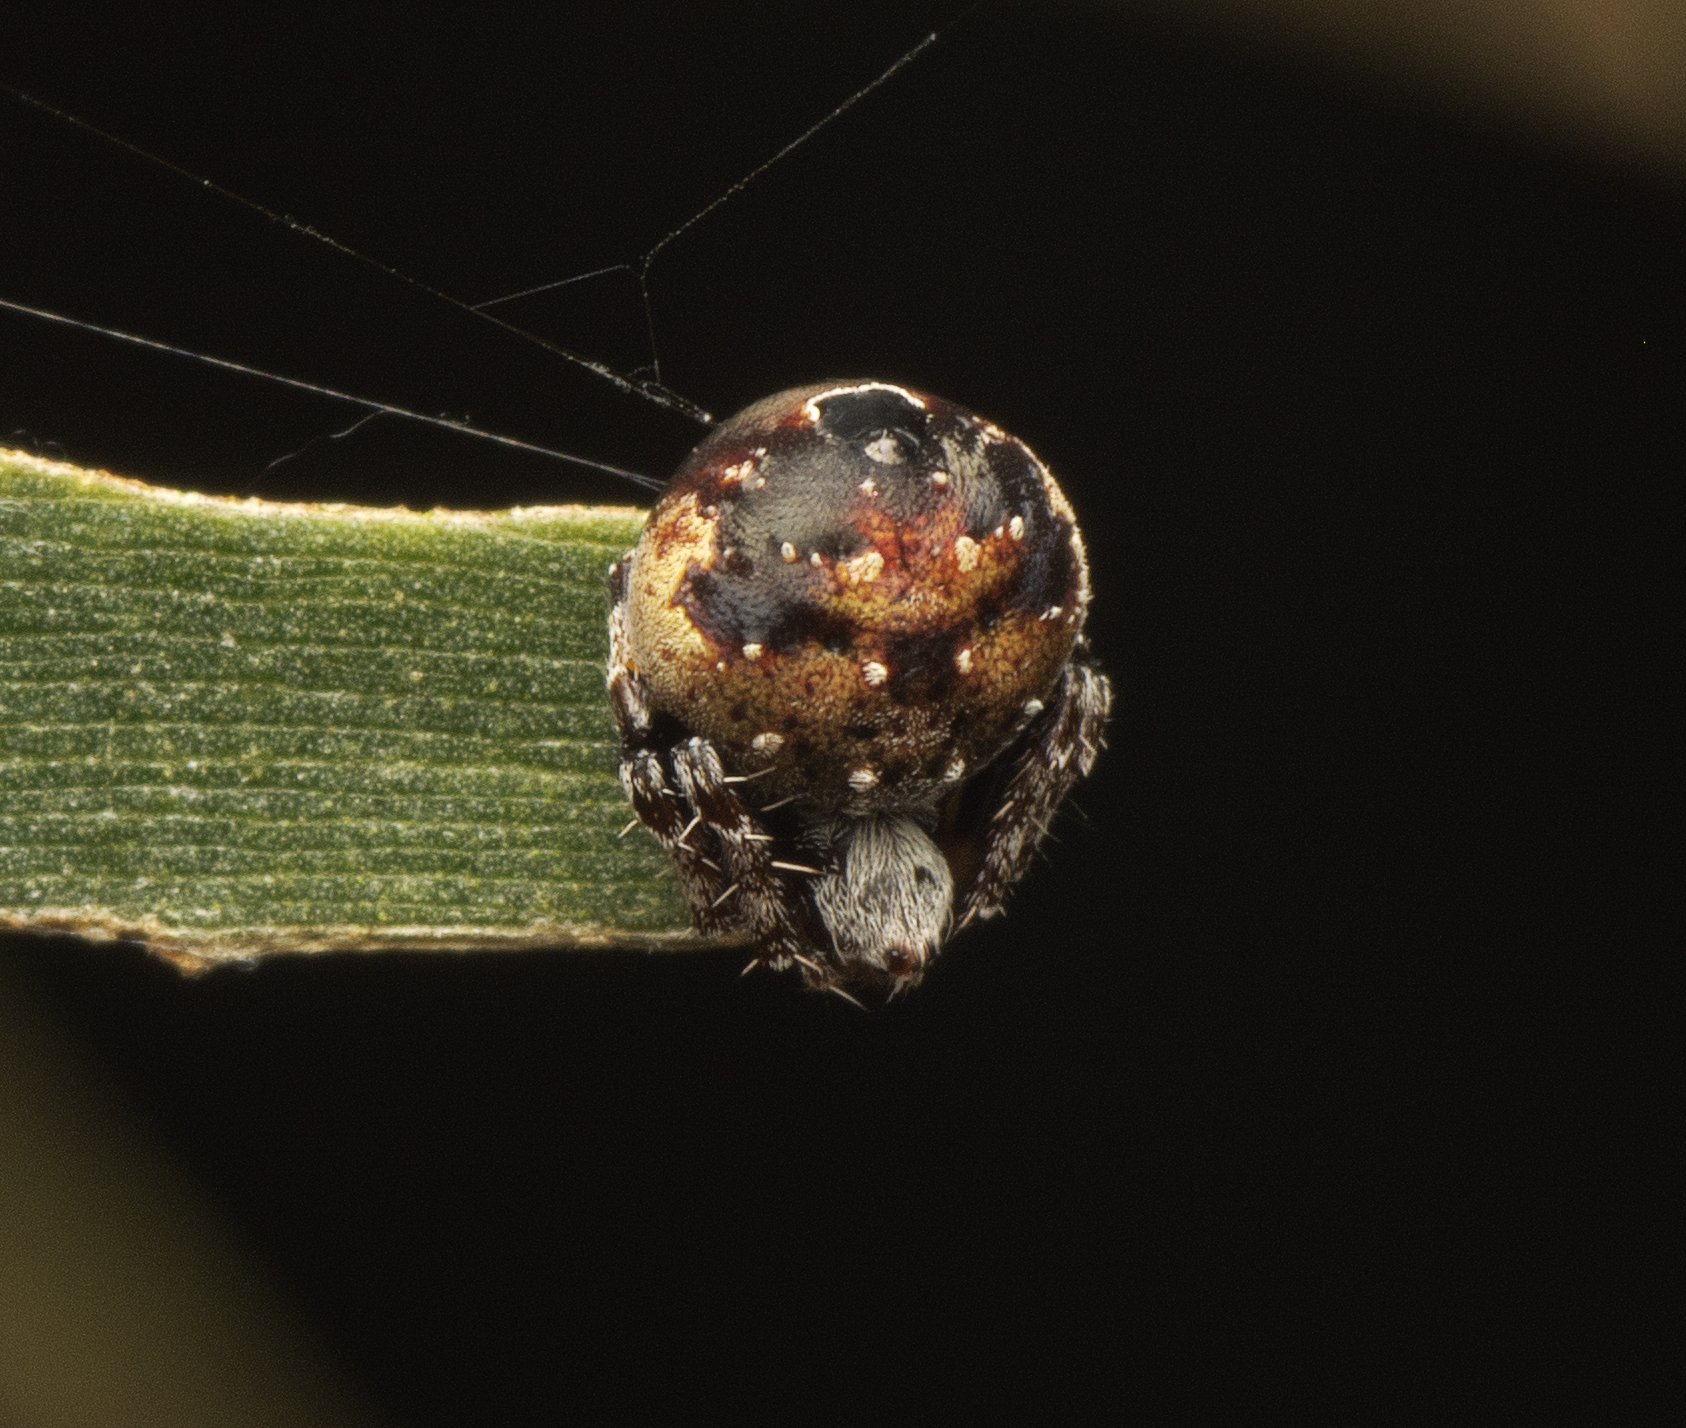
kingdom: Animalia
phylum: Arthropoda
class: Arachnida
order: Araneae
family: Araneidae
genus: Araneus
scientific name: Araneus rotundulus
